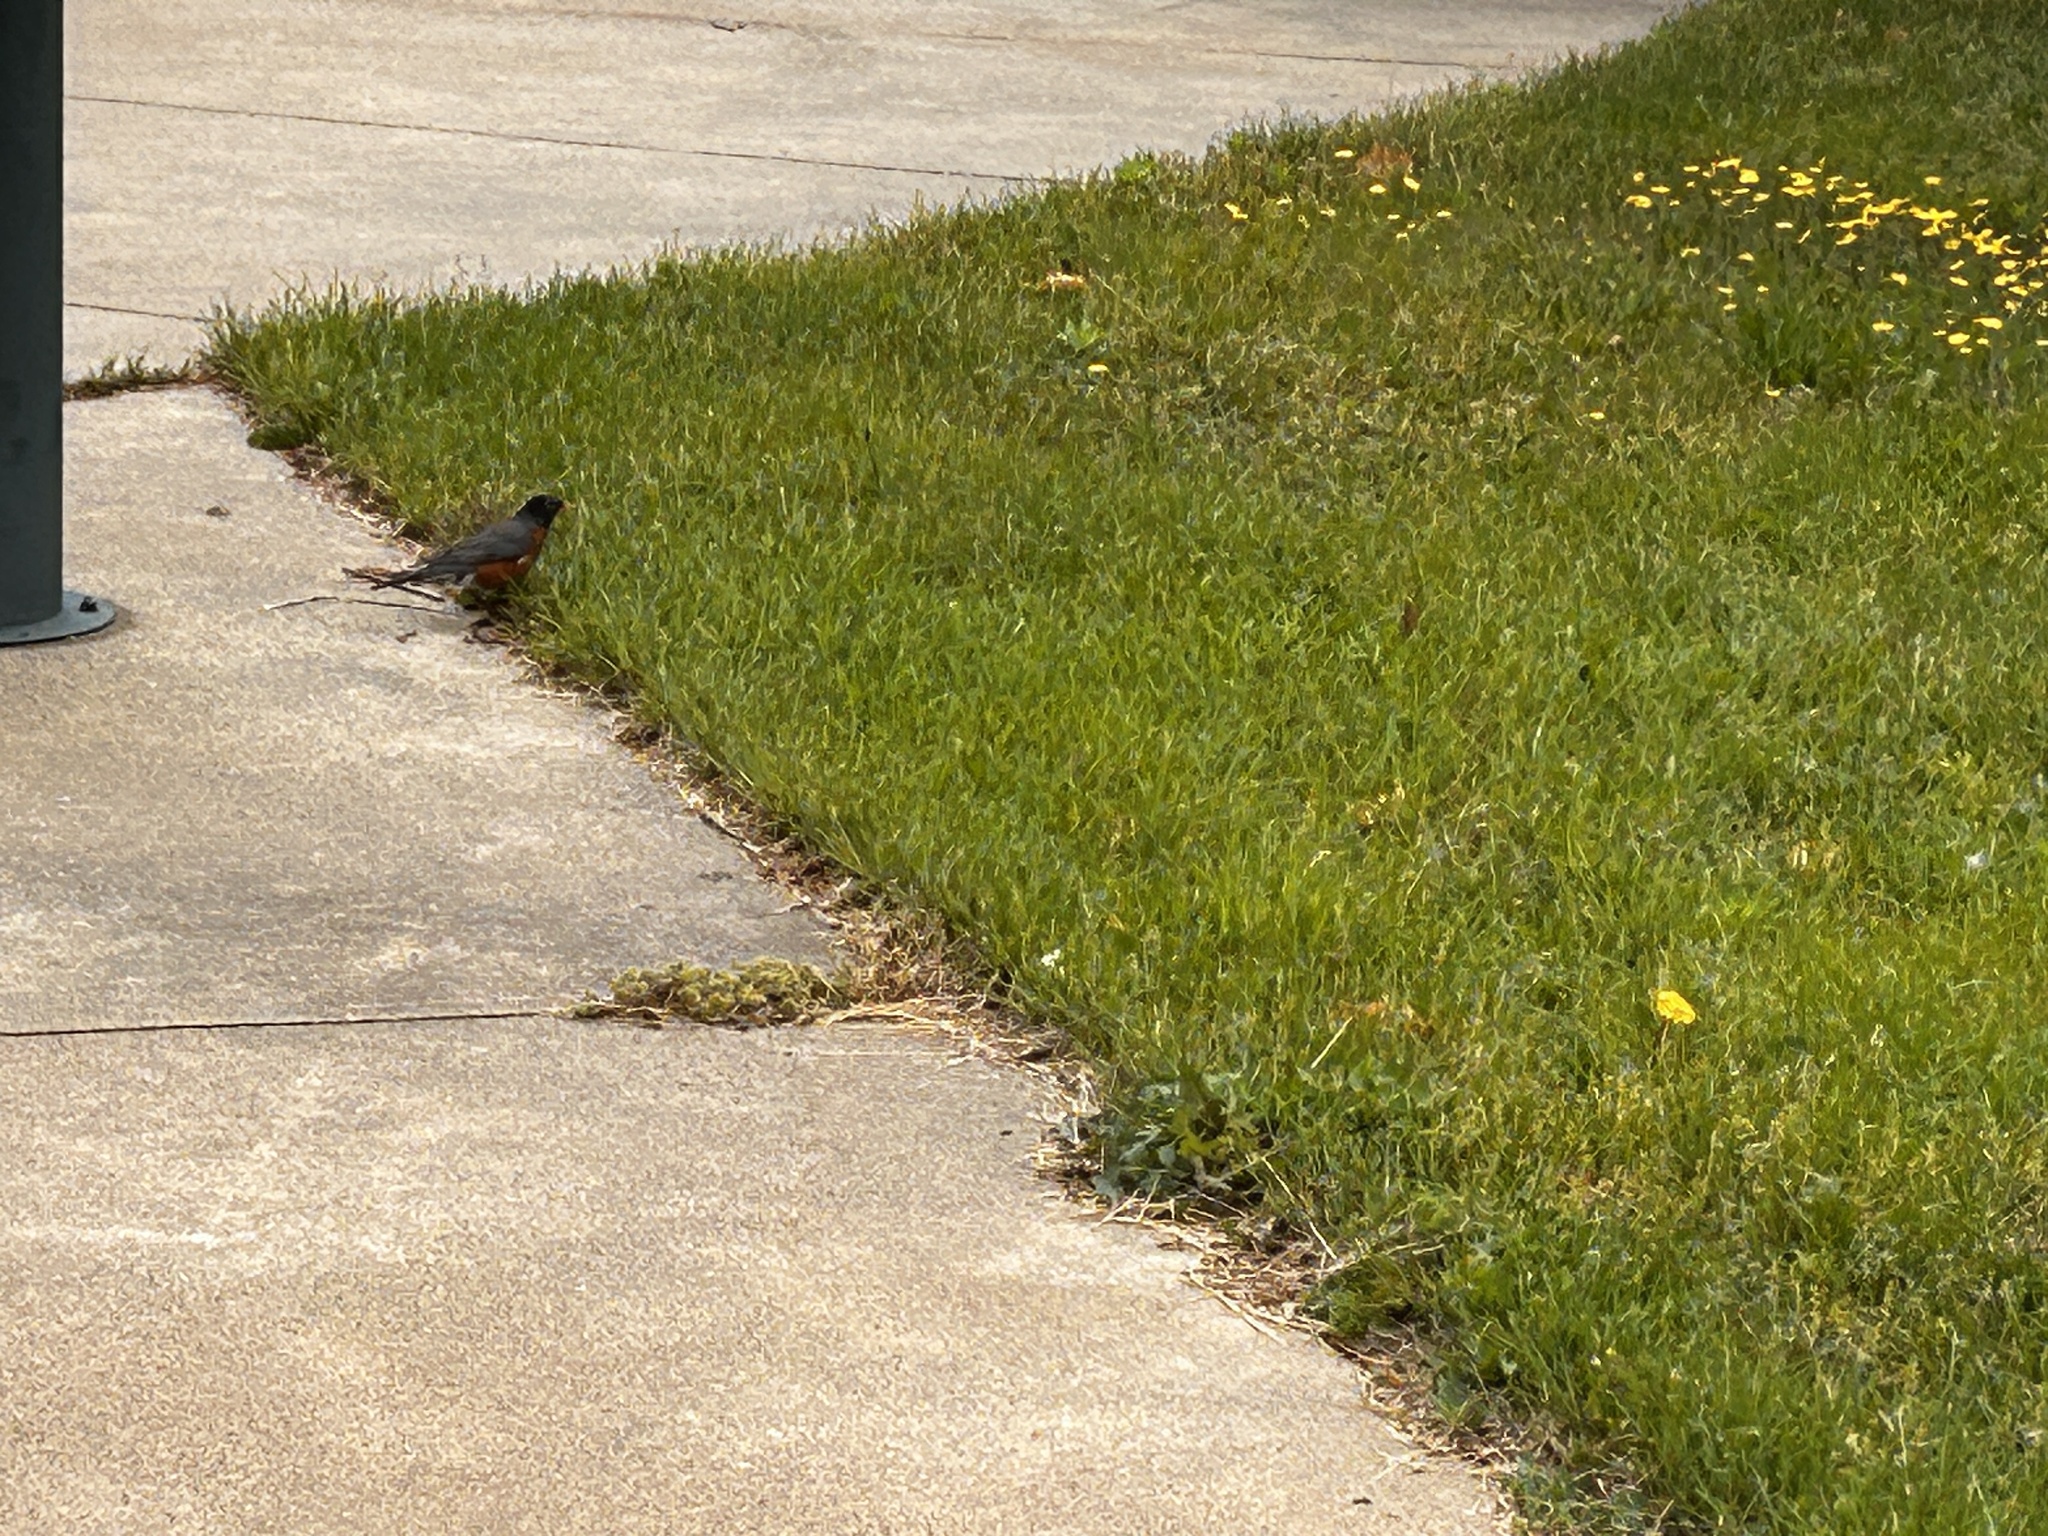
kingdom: Animalia
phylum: Chordata
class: Aves
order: Passeriformes
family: Turdidae
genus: Turdus
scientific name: Turdus migratorius
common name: American robin
